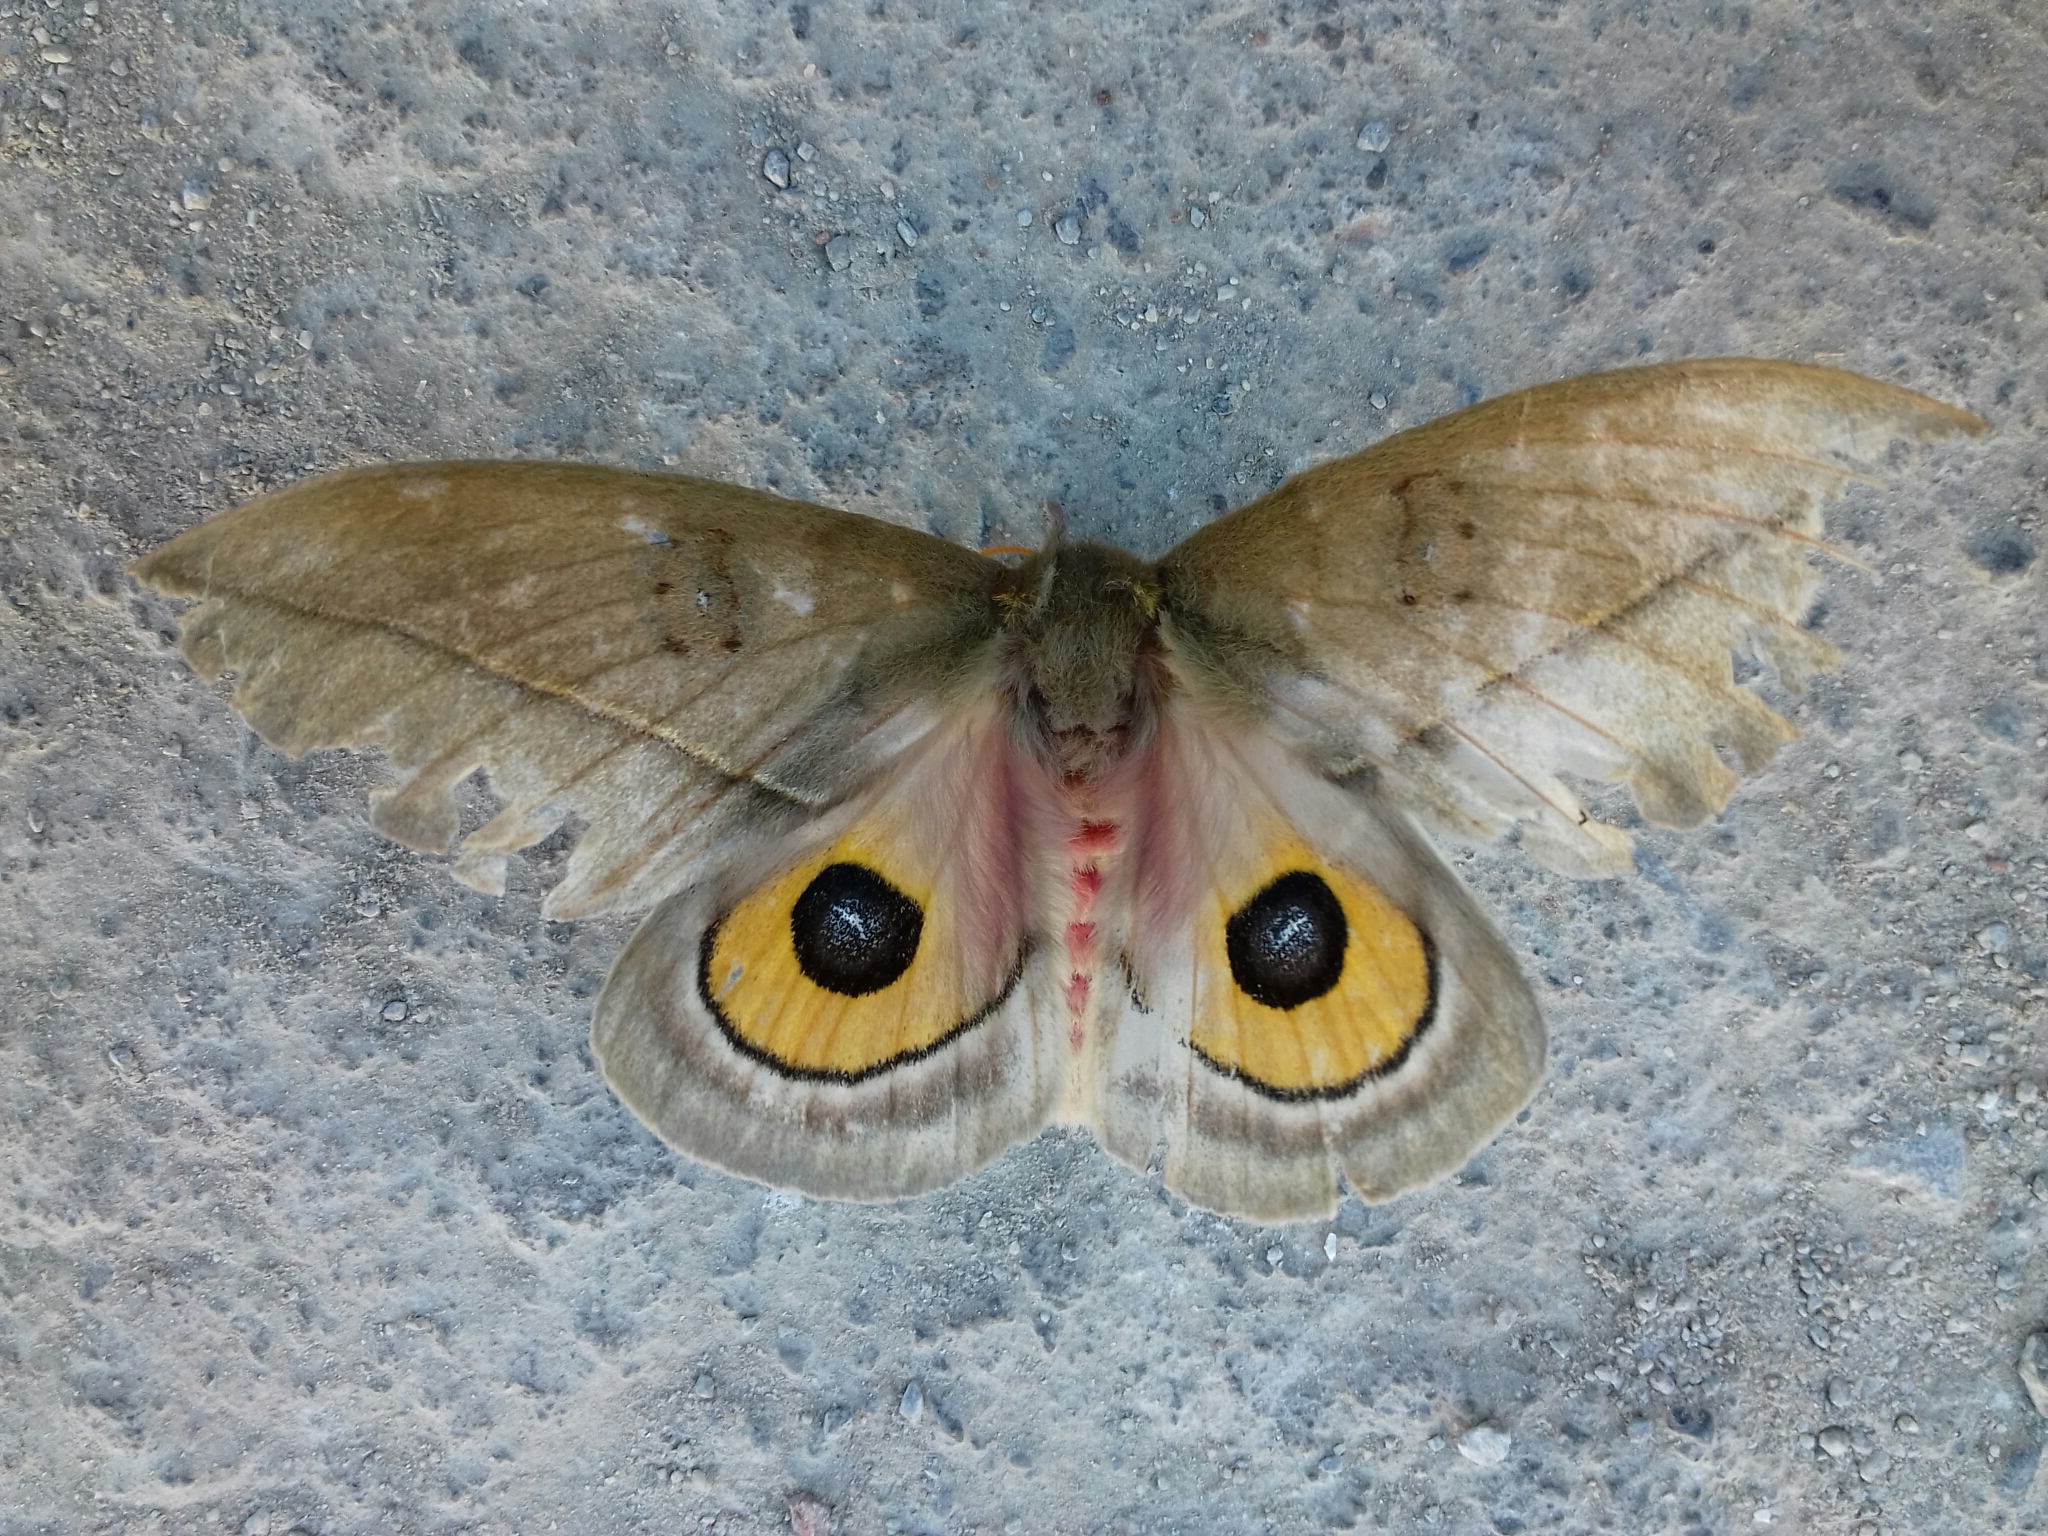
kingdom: Animalia
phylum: Arthropoda
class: Insecta
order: Lepidoptera
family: Saturniidae
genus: Automeris
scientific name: Automeris cecrops
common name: Cecrops eyed silkmoth
